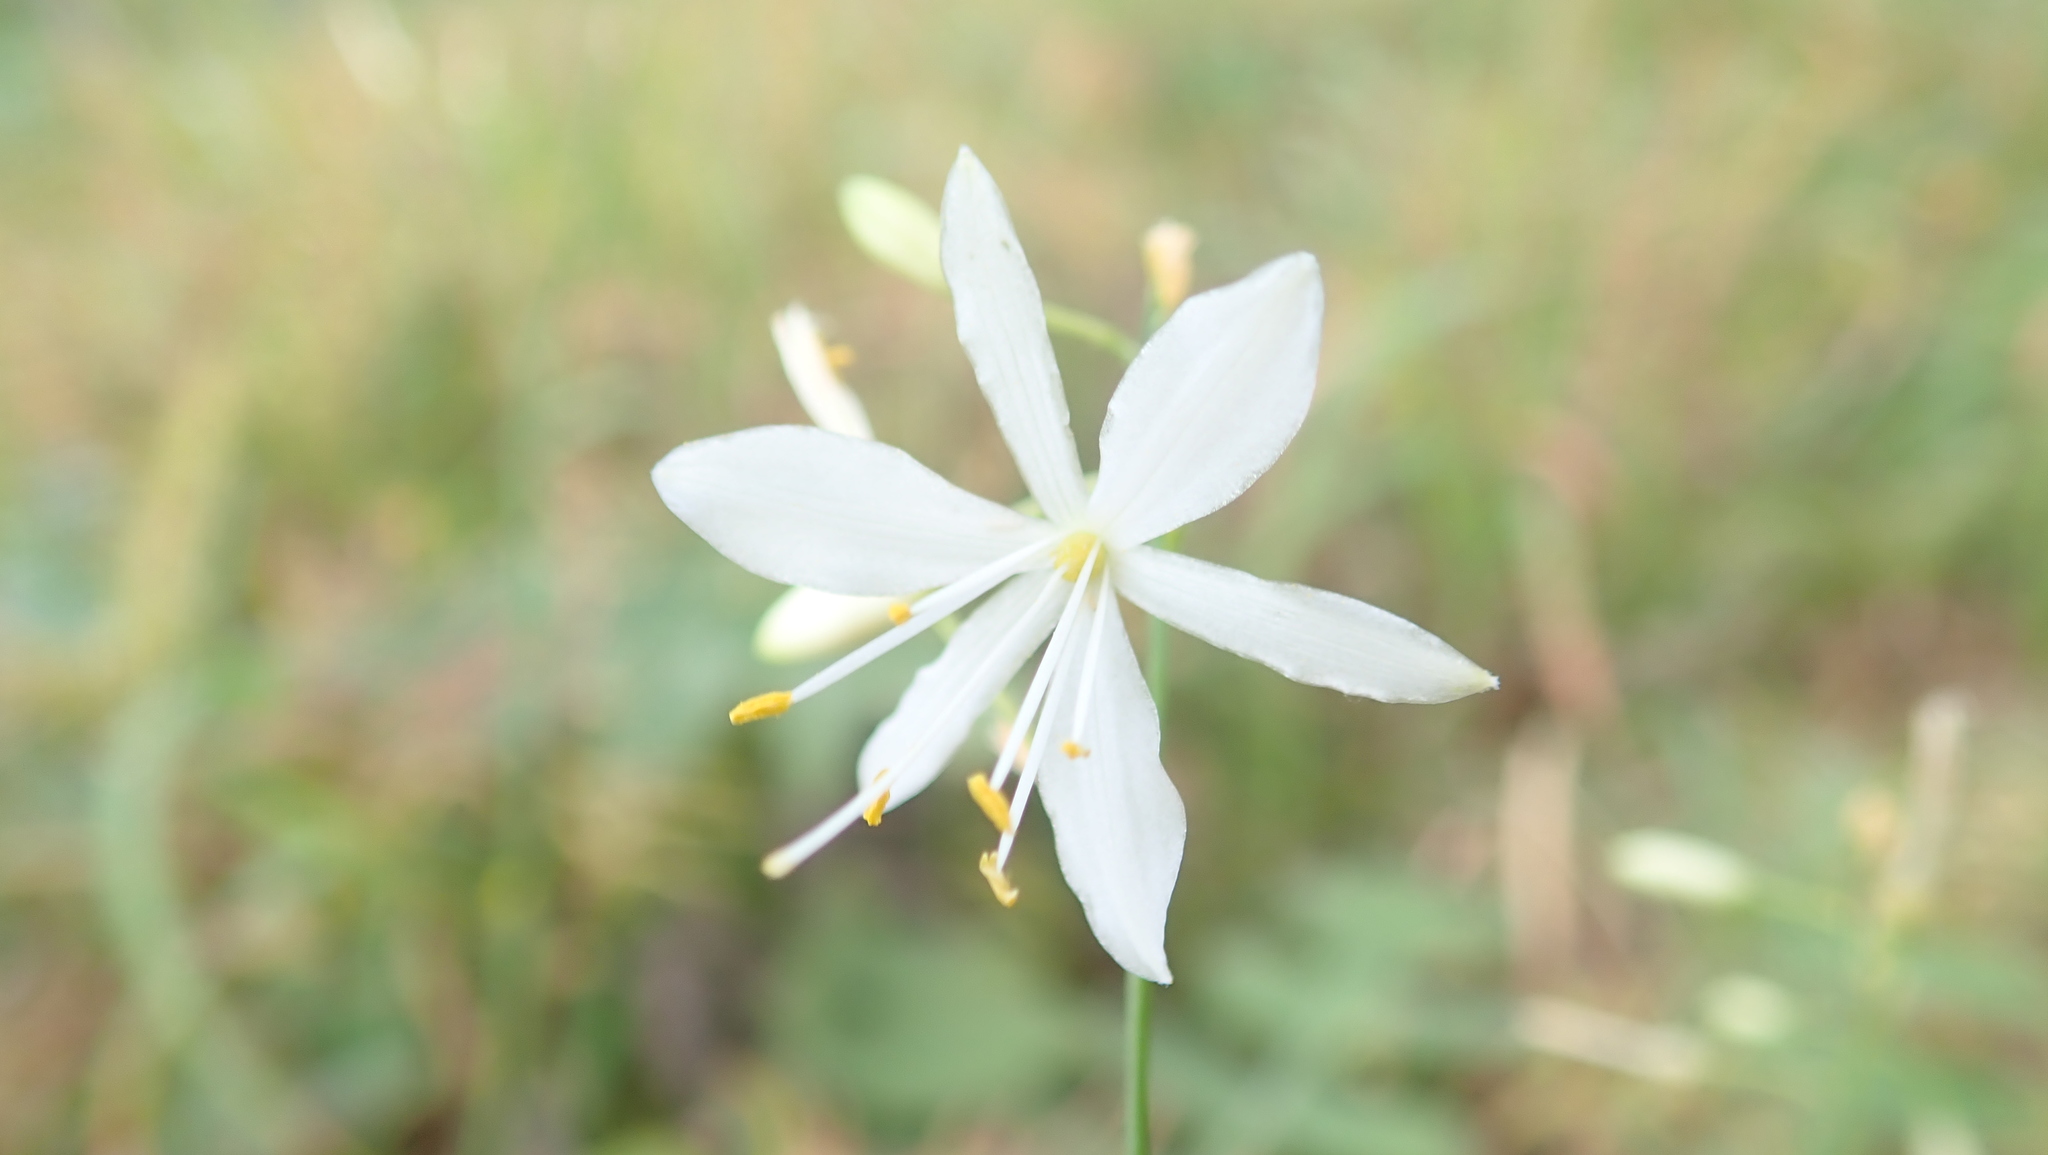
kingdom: Plantae
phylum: Tracheophyta
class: Liliopsida
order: Asparagales
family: Asparagaceae
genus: Anthericum
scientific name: Anthericum ramosum
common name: Branched st. bernard's-lily
